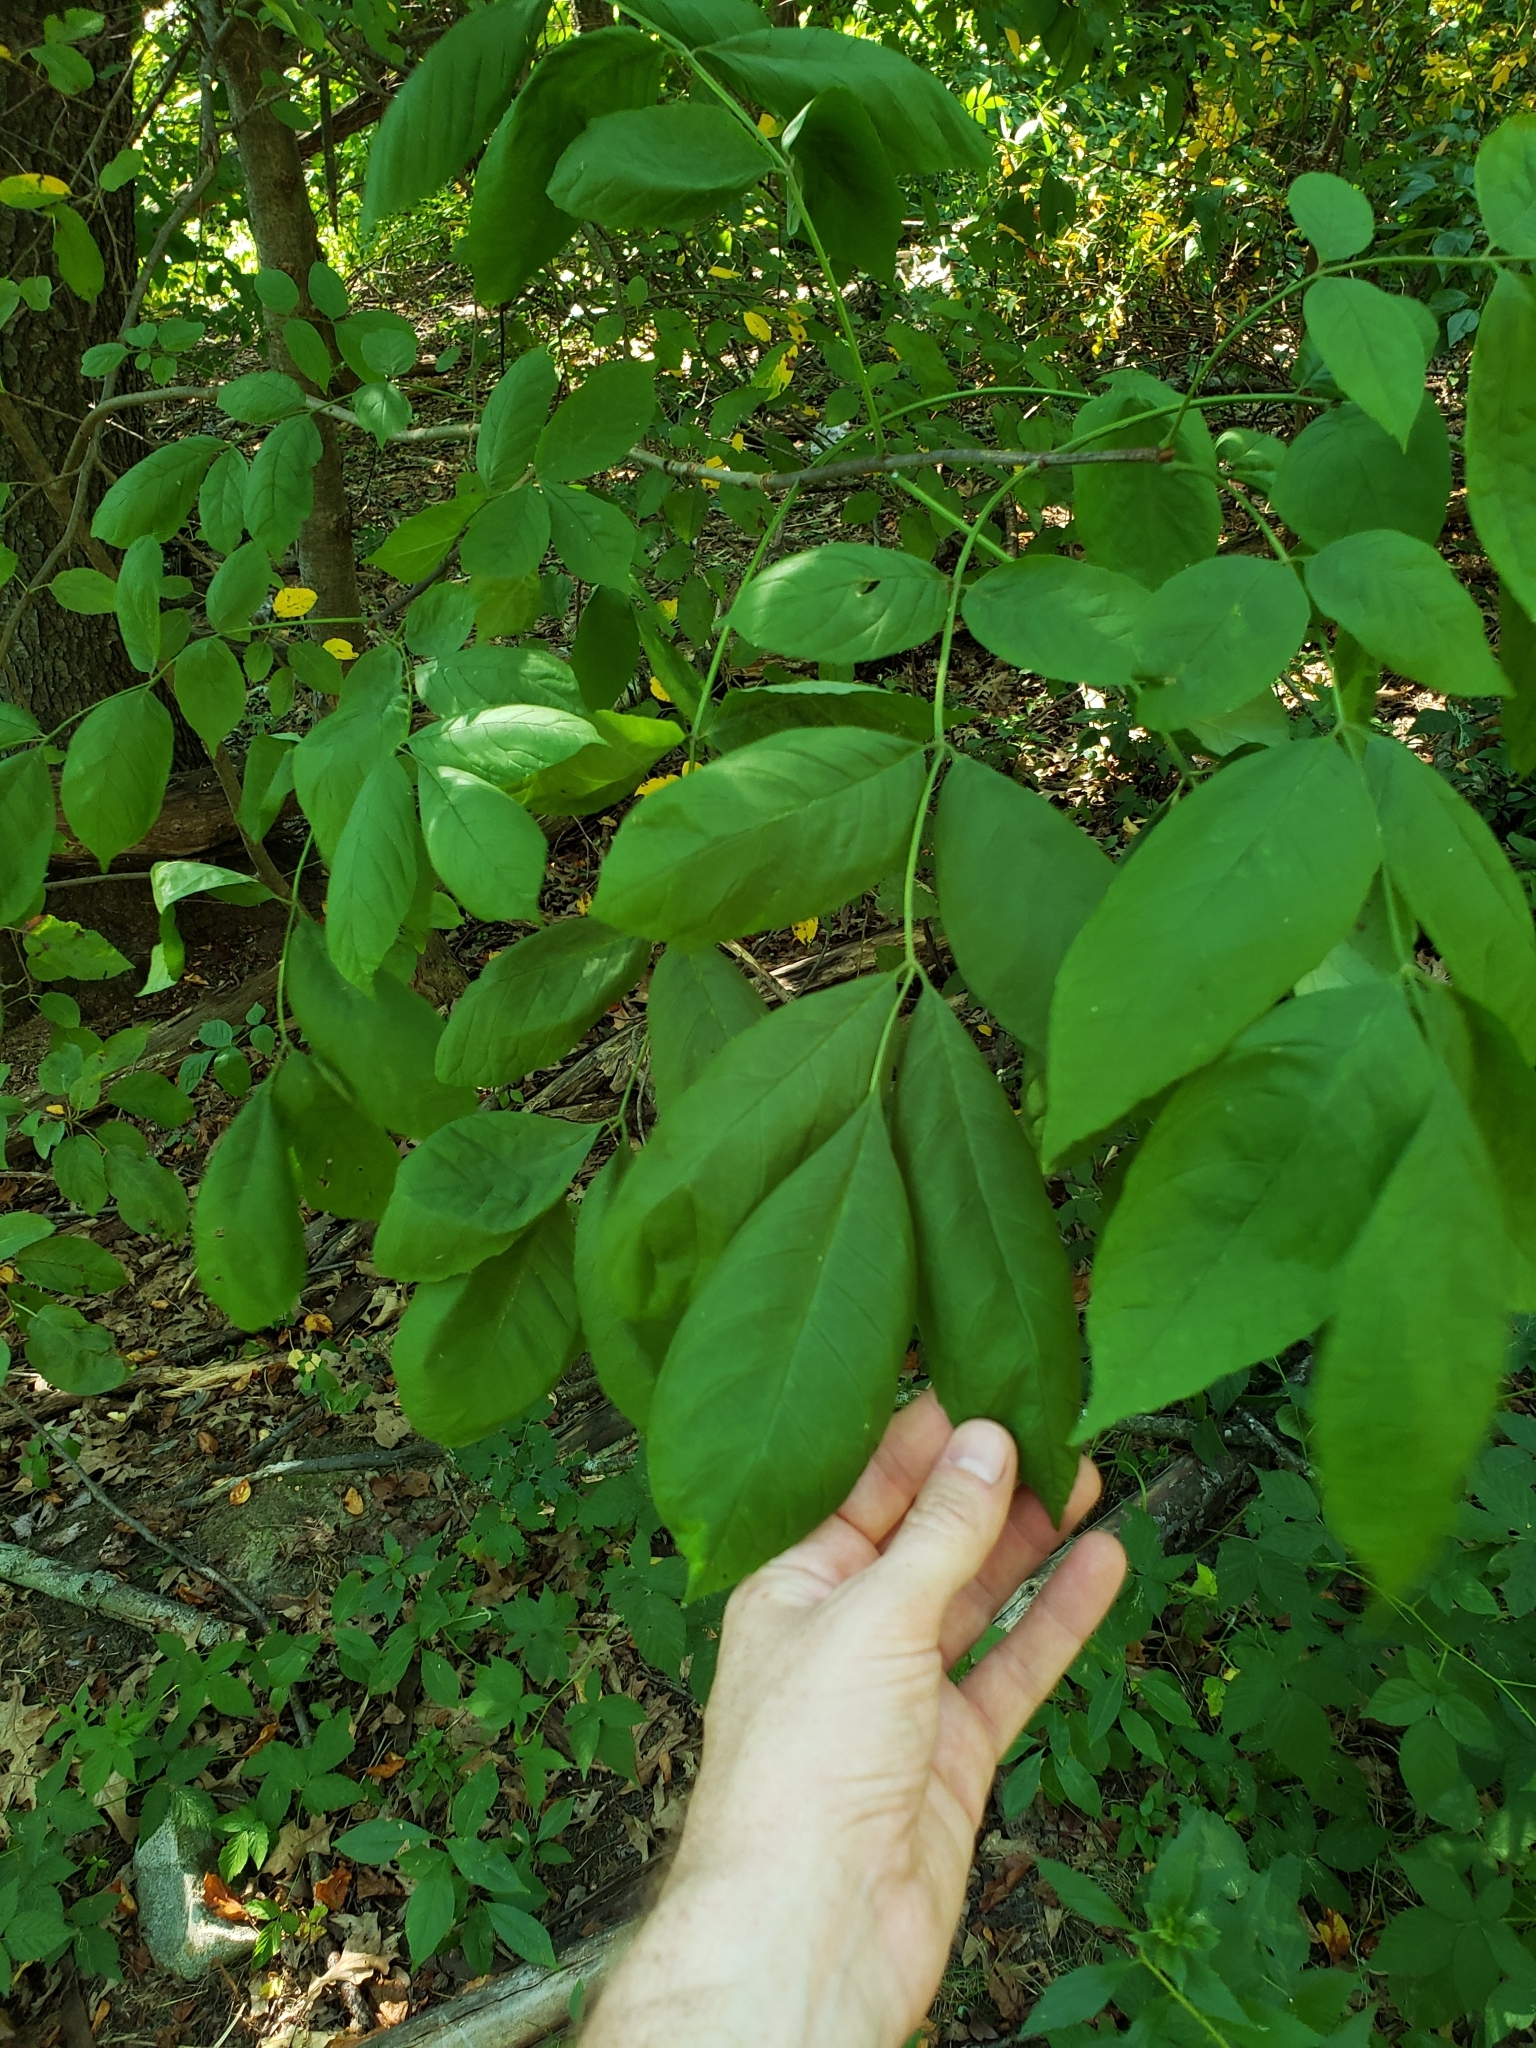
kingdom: Plantae
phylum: Tracheophyta
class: Magnoliopsida
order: Lamiales
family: Oleaceae
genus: Fraxinus
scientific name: Fraxinus
